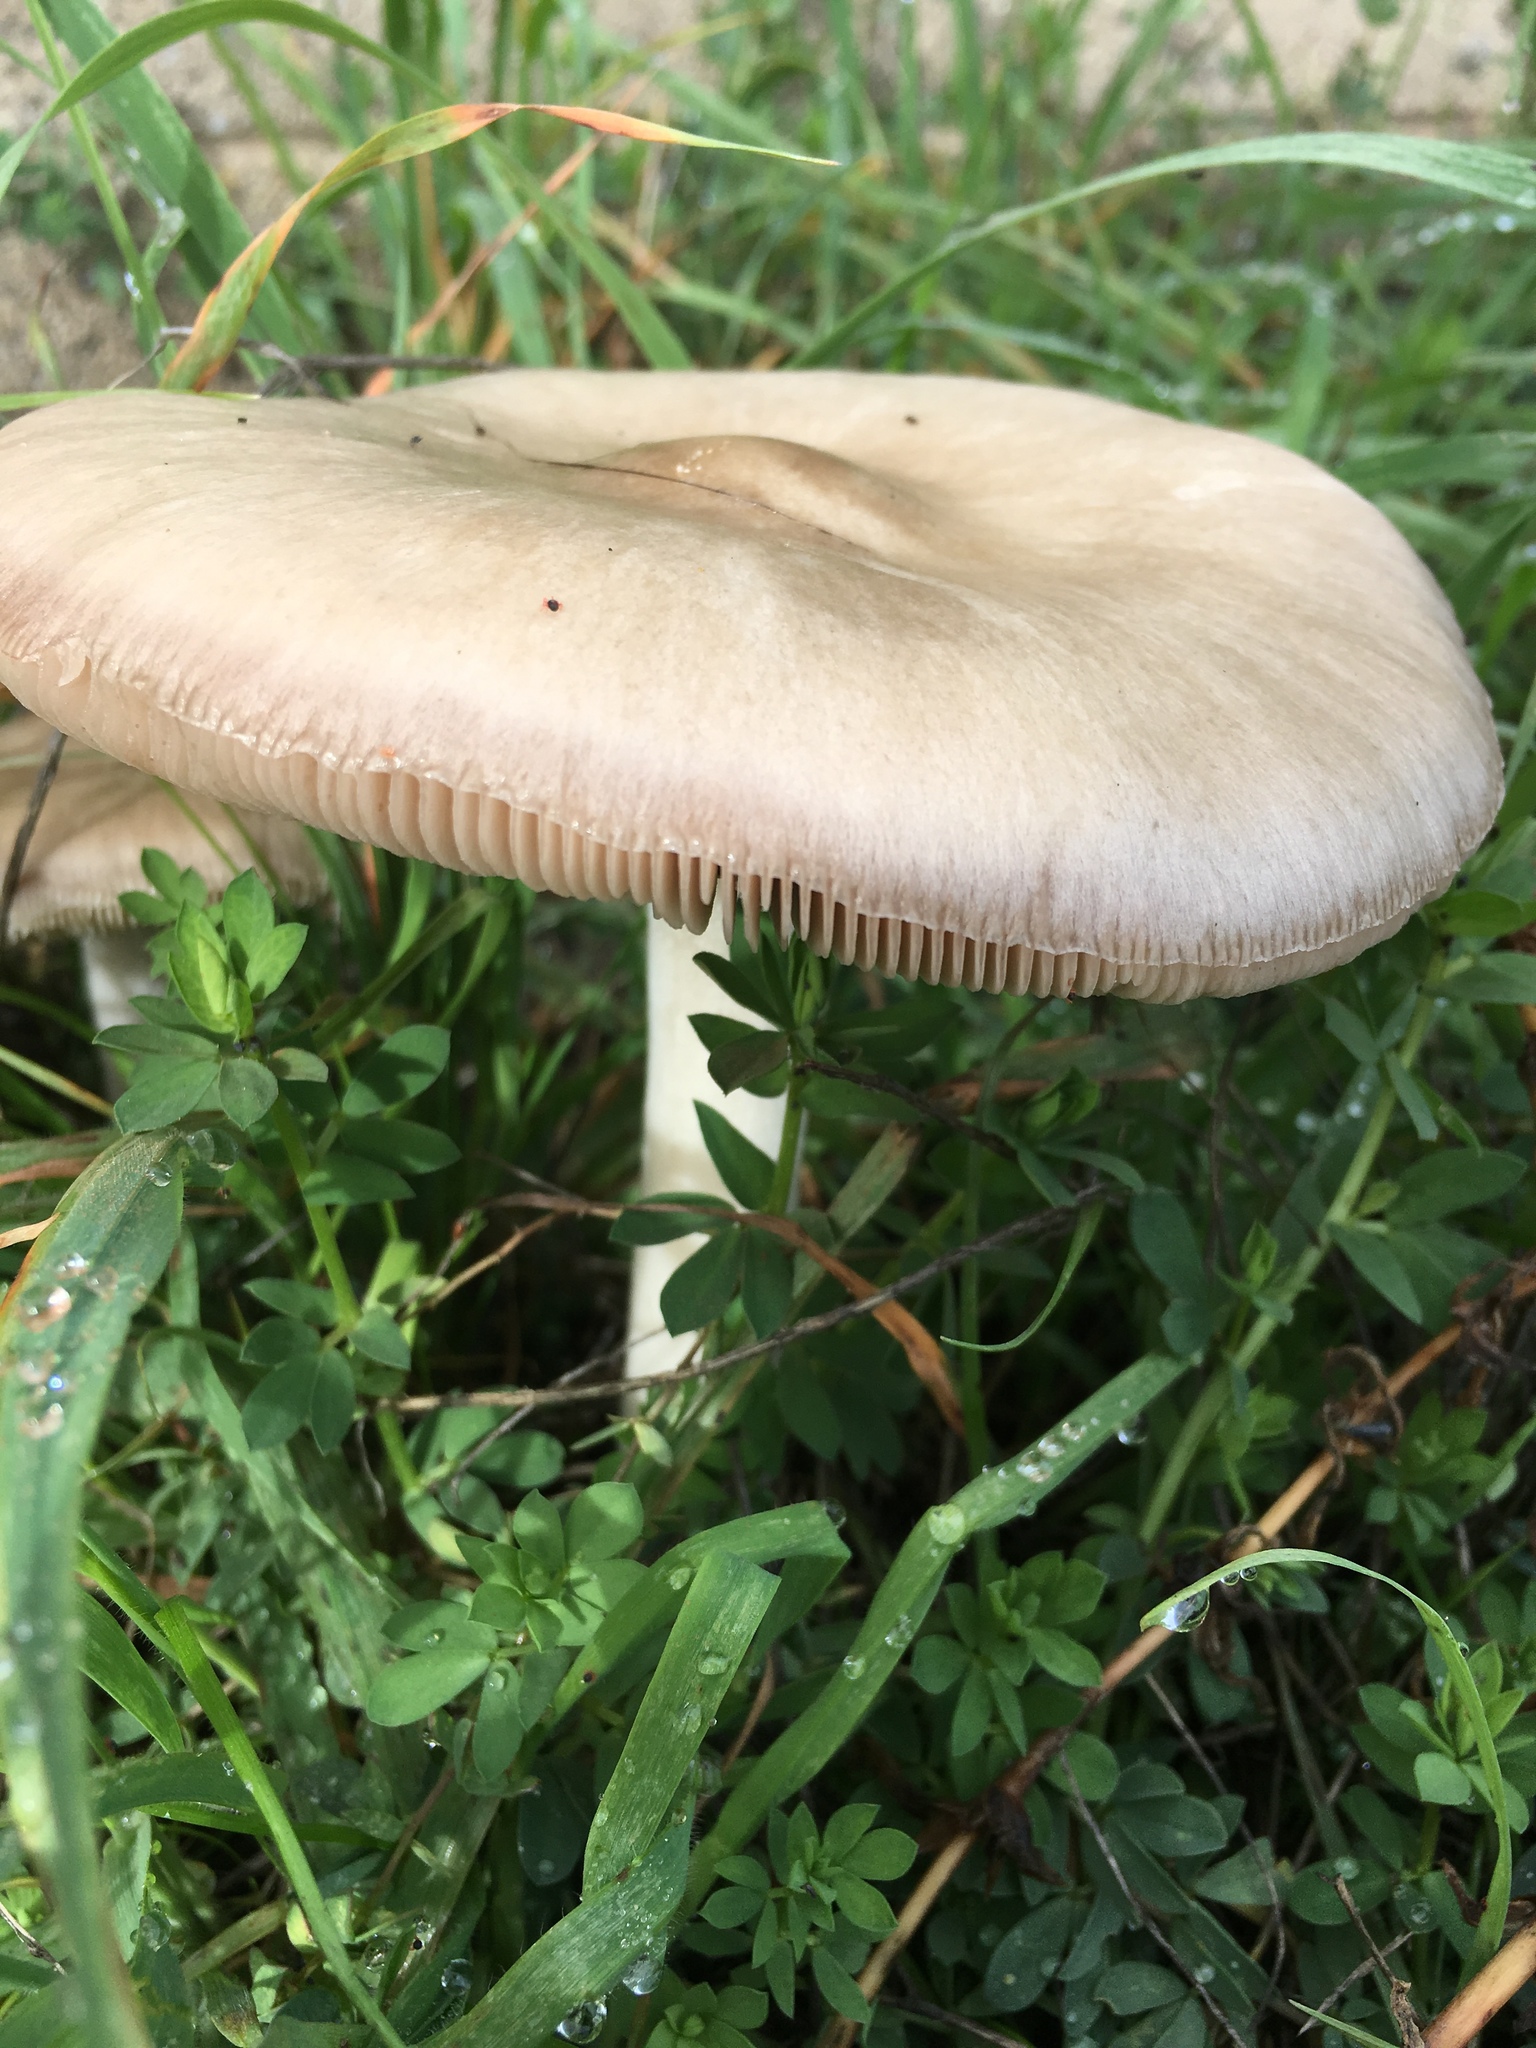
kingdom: Fungi
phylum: Basidiomycota
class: Agaricomycetes
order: Agaricales
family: Pluteaceae
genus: Volvopluteus
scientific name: Volvopluteus gloiocephalus
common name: Stubble rosegill
